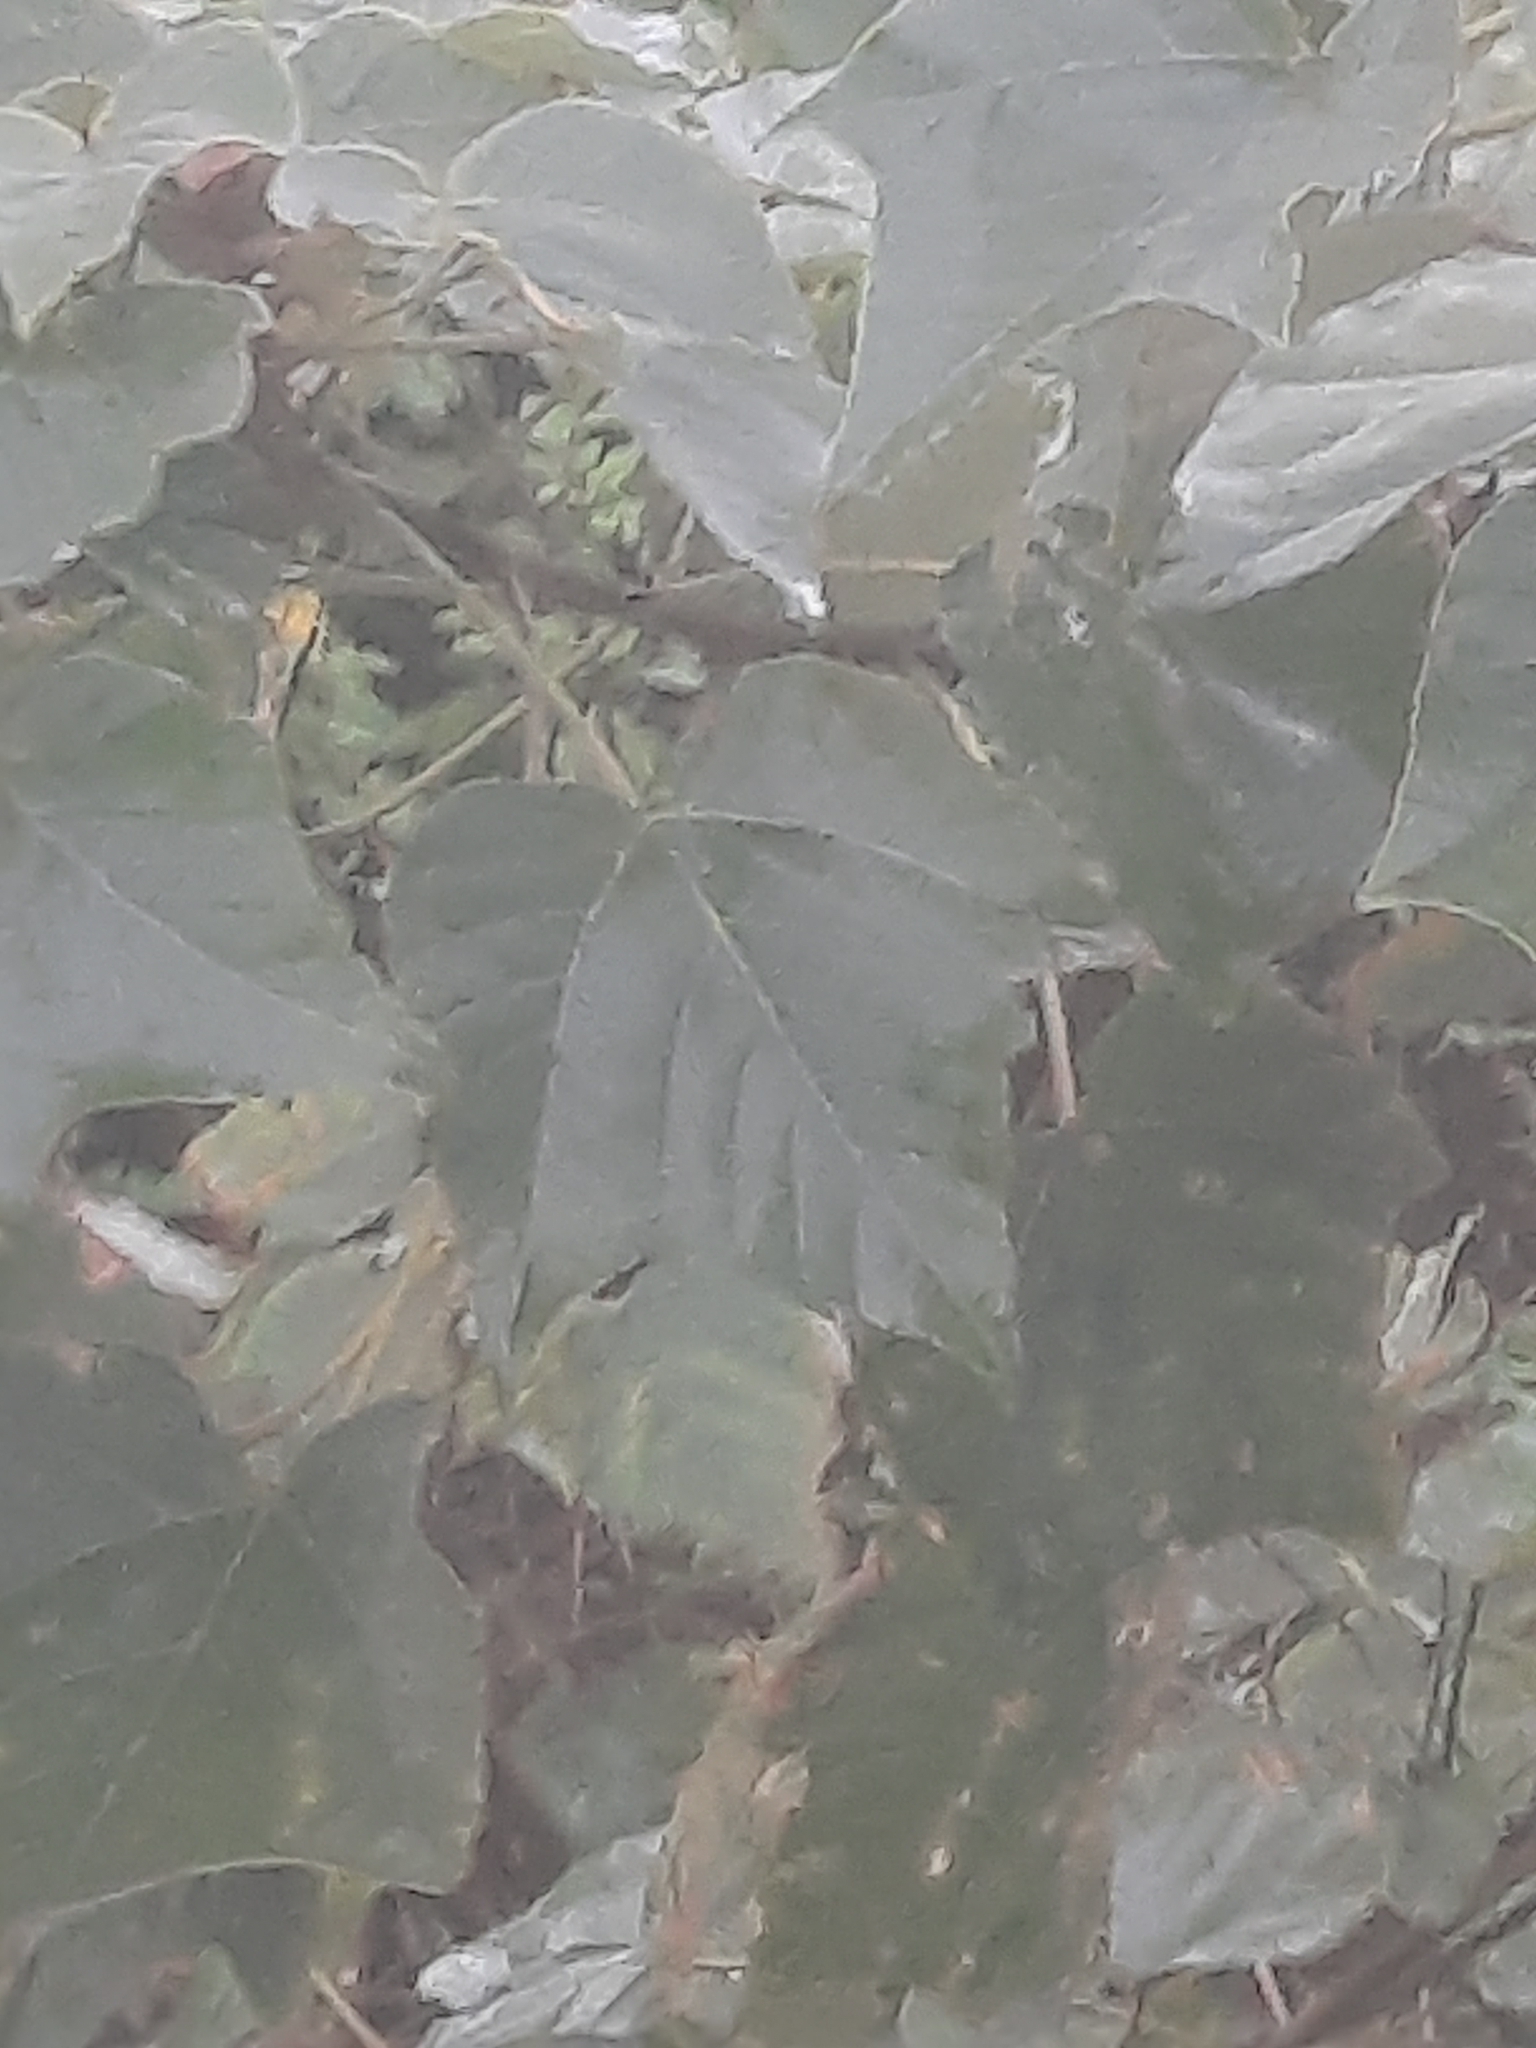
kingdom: Plantae
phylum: Tracheophyta
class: Magnoliopsida
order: Malpighiales
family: Euphorbiaceae
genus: Mallotus
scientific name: Mallotus japonicus
